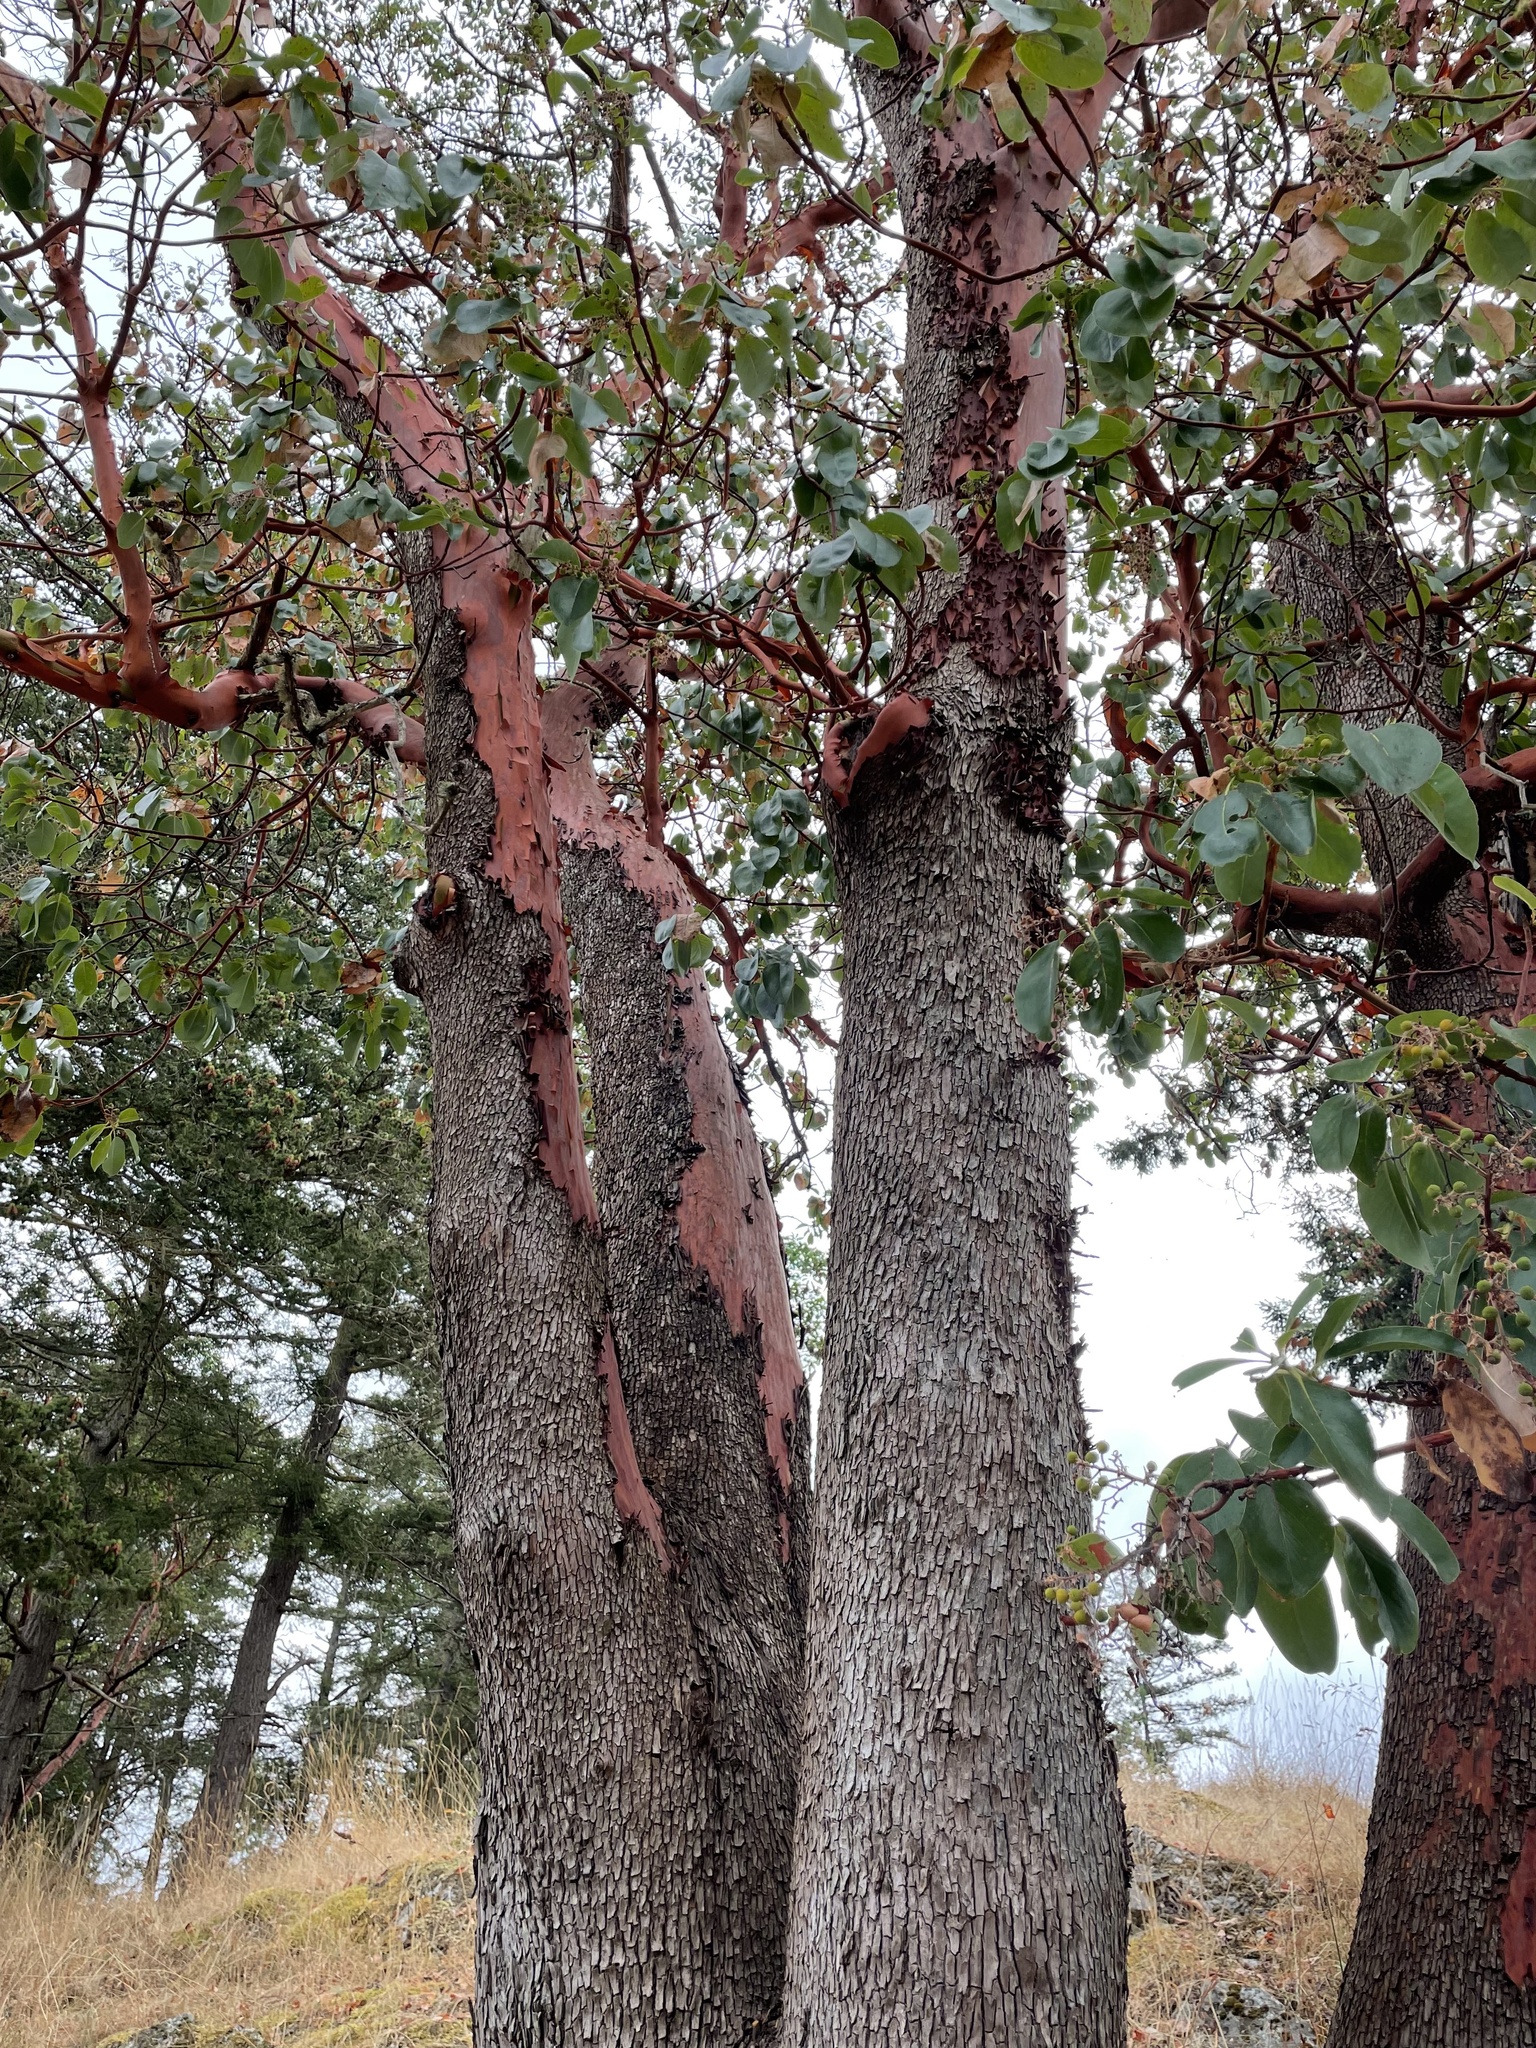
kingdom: Plantae
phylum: Tracheophyta
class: Magnoliopsida
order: Ericales
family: Ericaceae
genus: Arbutus
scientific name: Arbutus menziesii
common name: Pacific madrone
